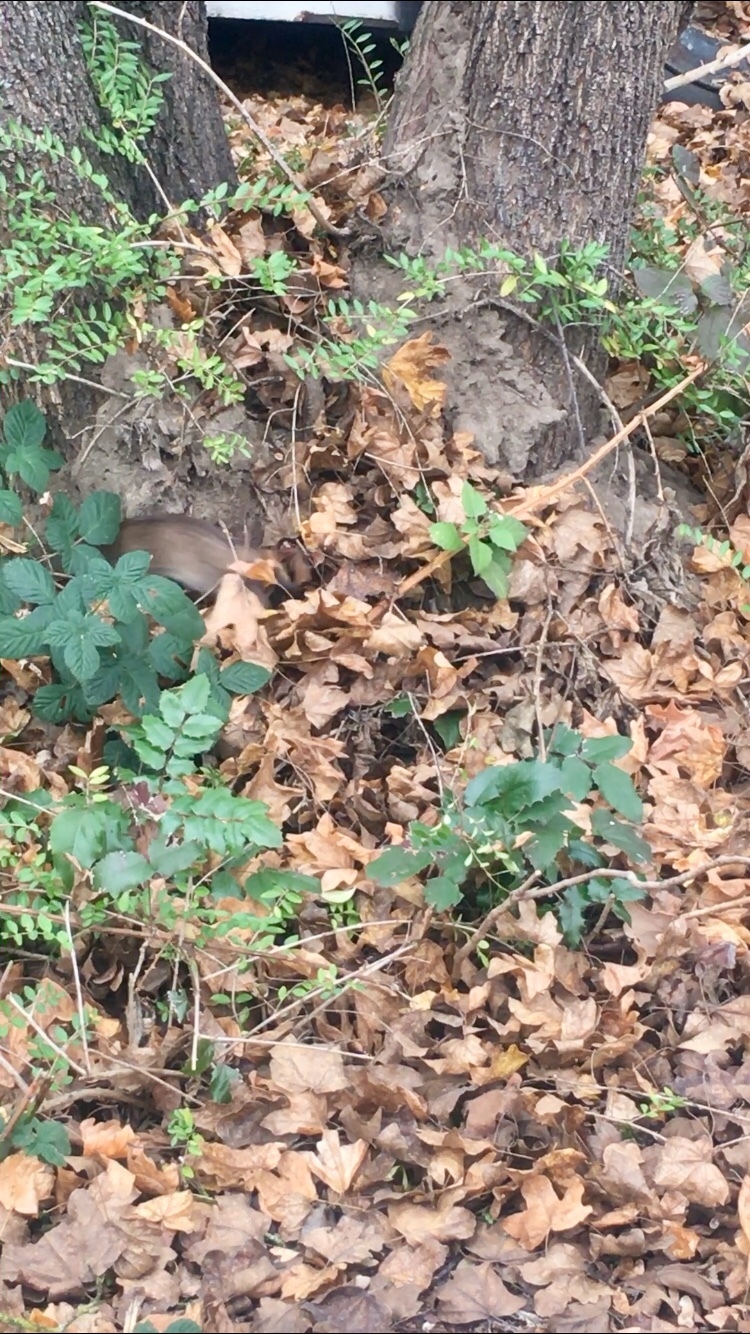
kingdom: Animalia
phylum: Chordata
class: Mammalia
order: Rodentia
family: Muridae
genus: Rattus
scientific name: Rattus norvegicus
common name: Brown rat
